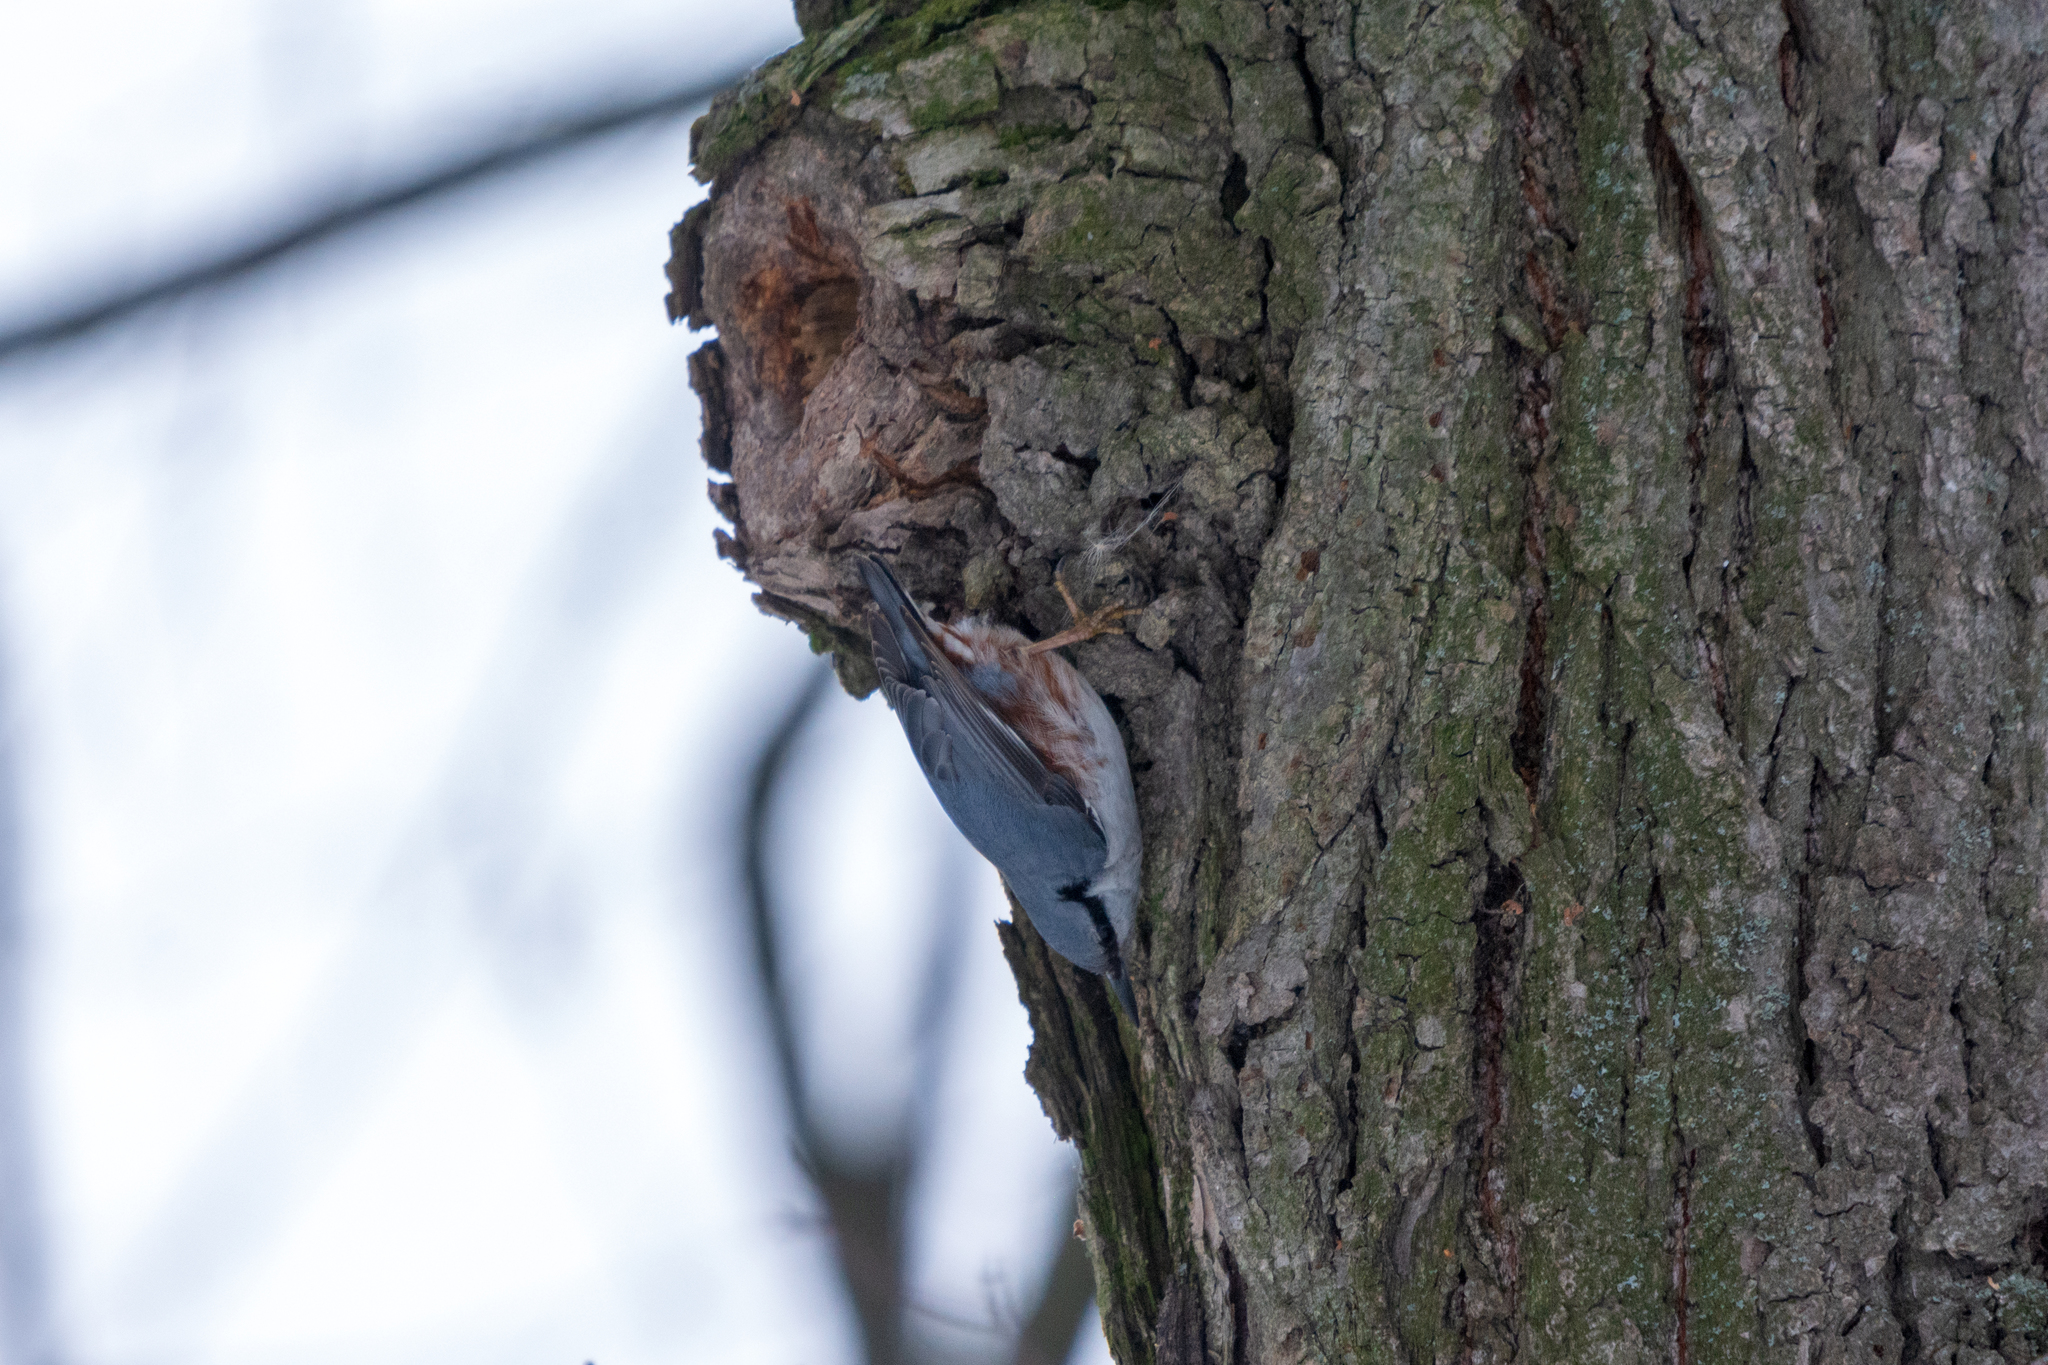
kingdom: Animalia
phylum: Chordata
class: Aves
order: Passeriformes
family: Sittidae
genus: Sitta
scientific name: Sitta europaea
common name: Eurasian nuthatch
